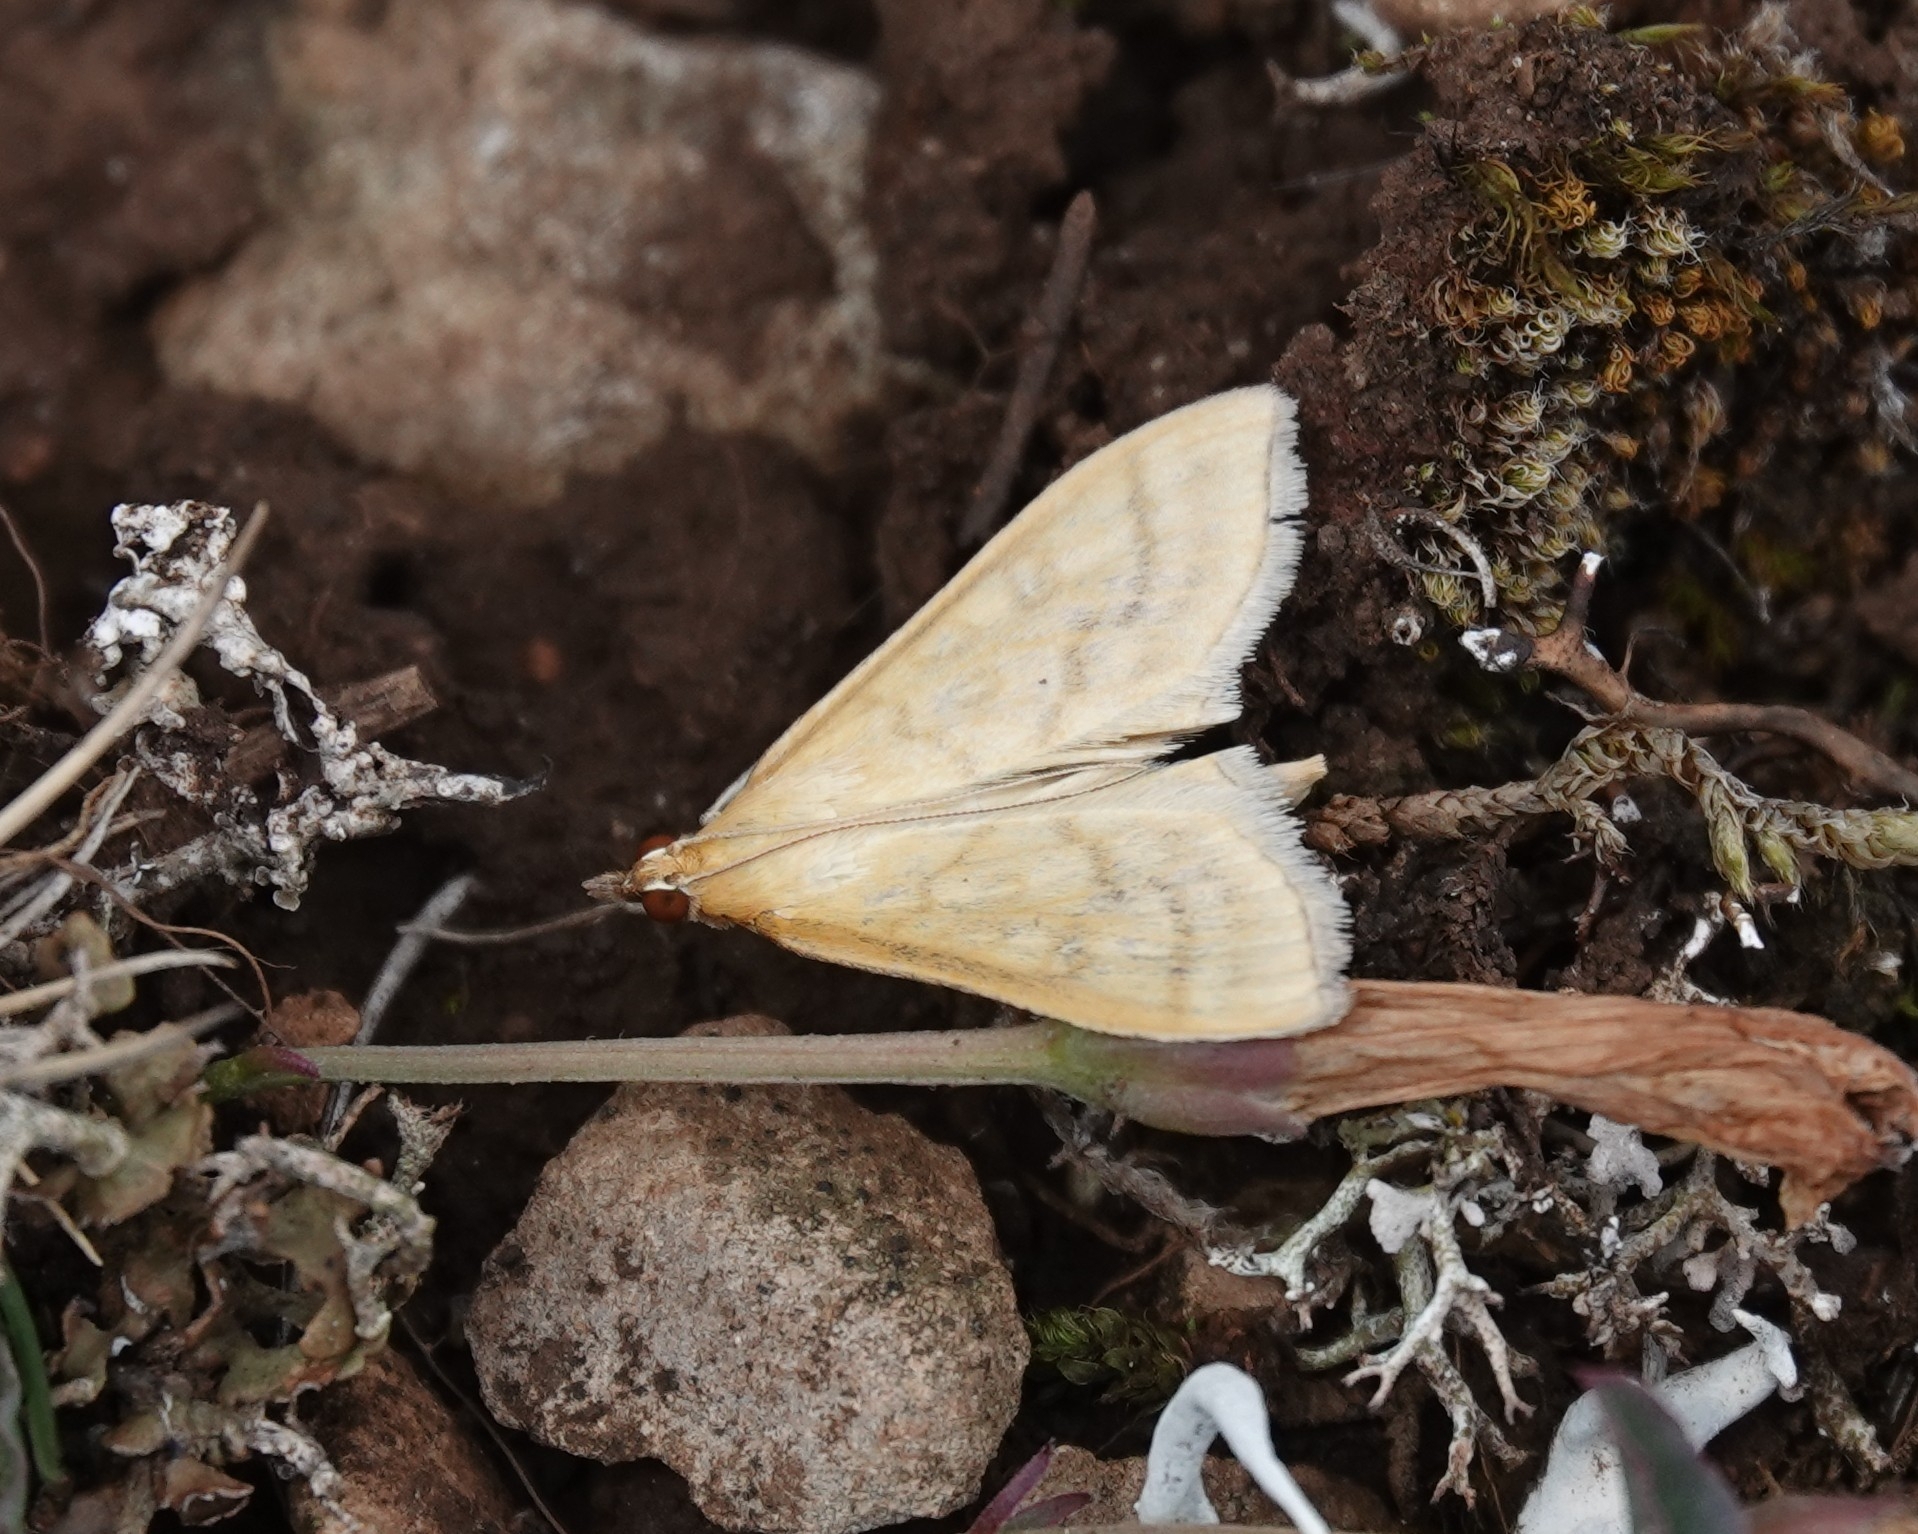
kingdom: Animalia
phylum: Arthropoda
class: Insecta
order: Lepidoptera
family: Crambidae
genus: Mecyna
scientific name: Mecyna flavalis
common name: Yellow pearl
